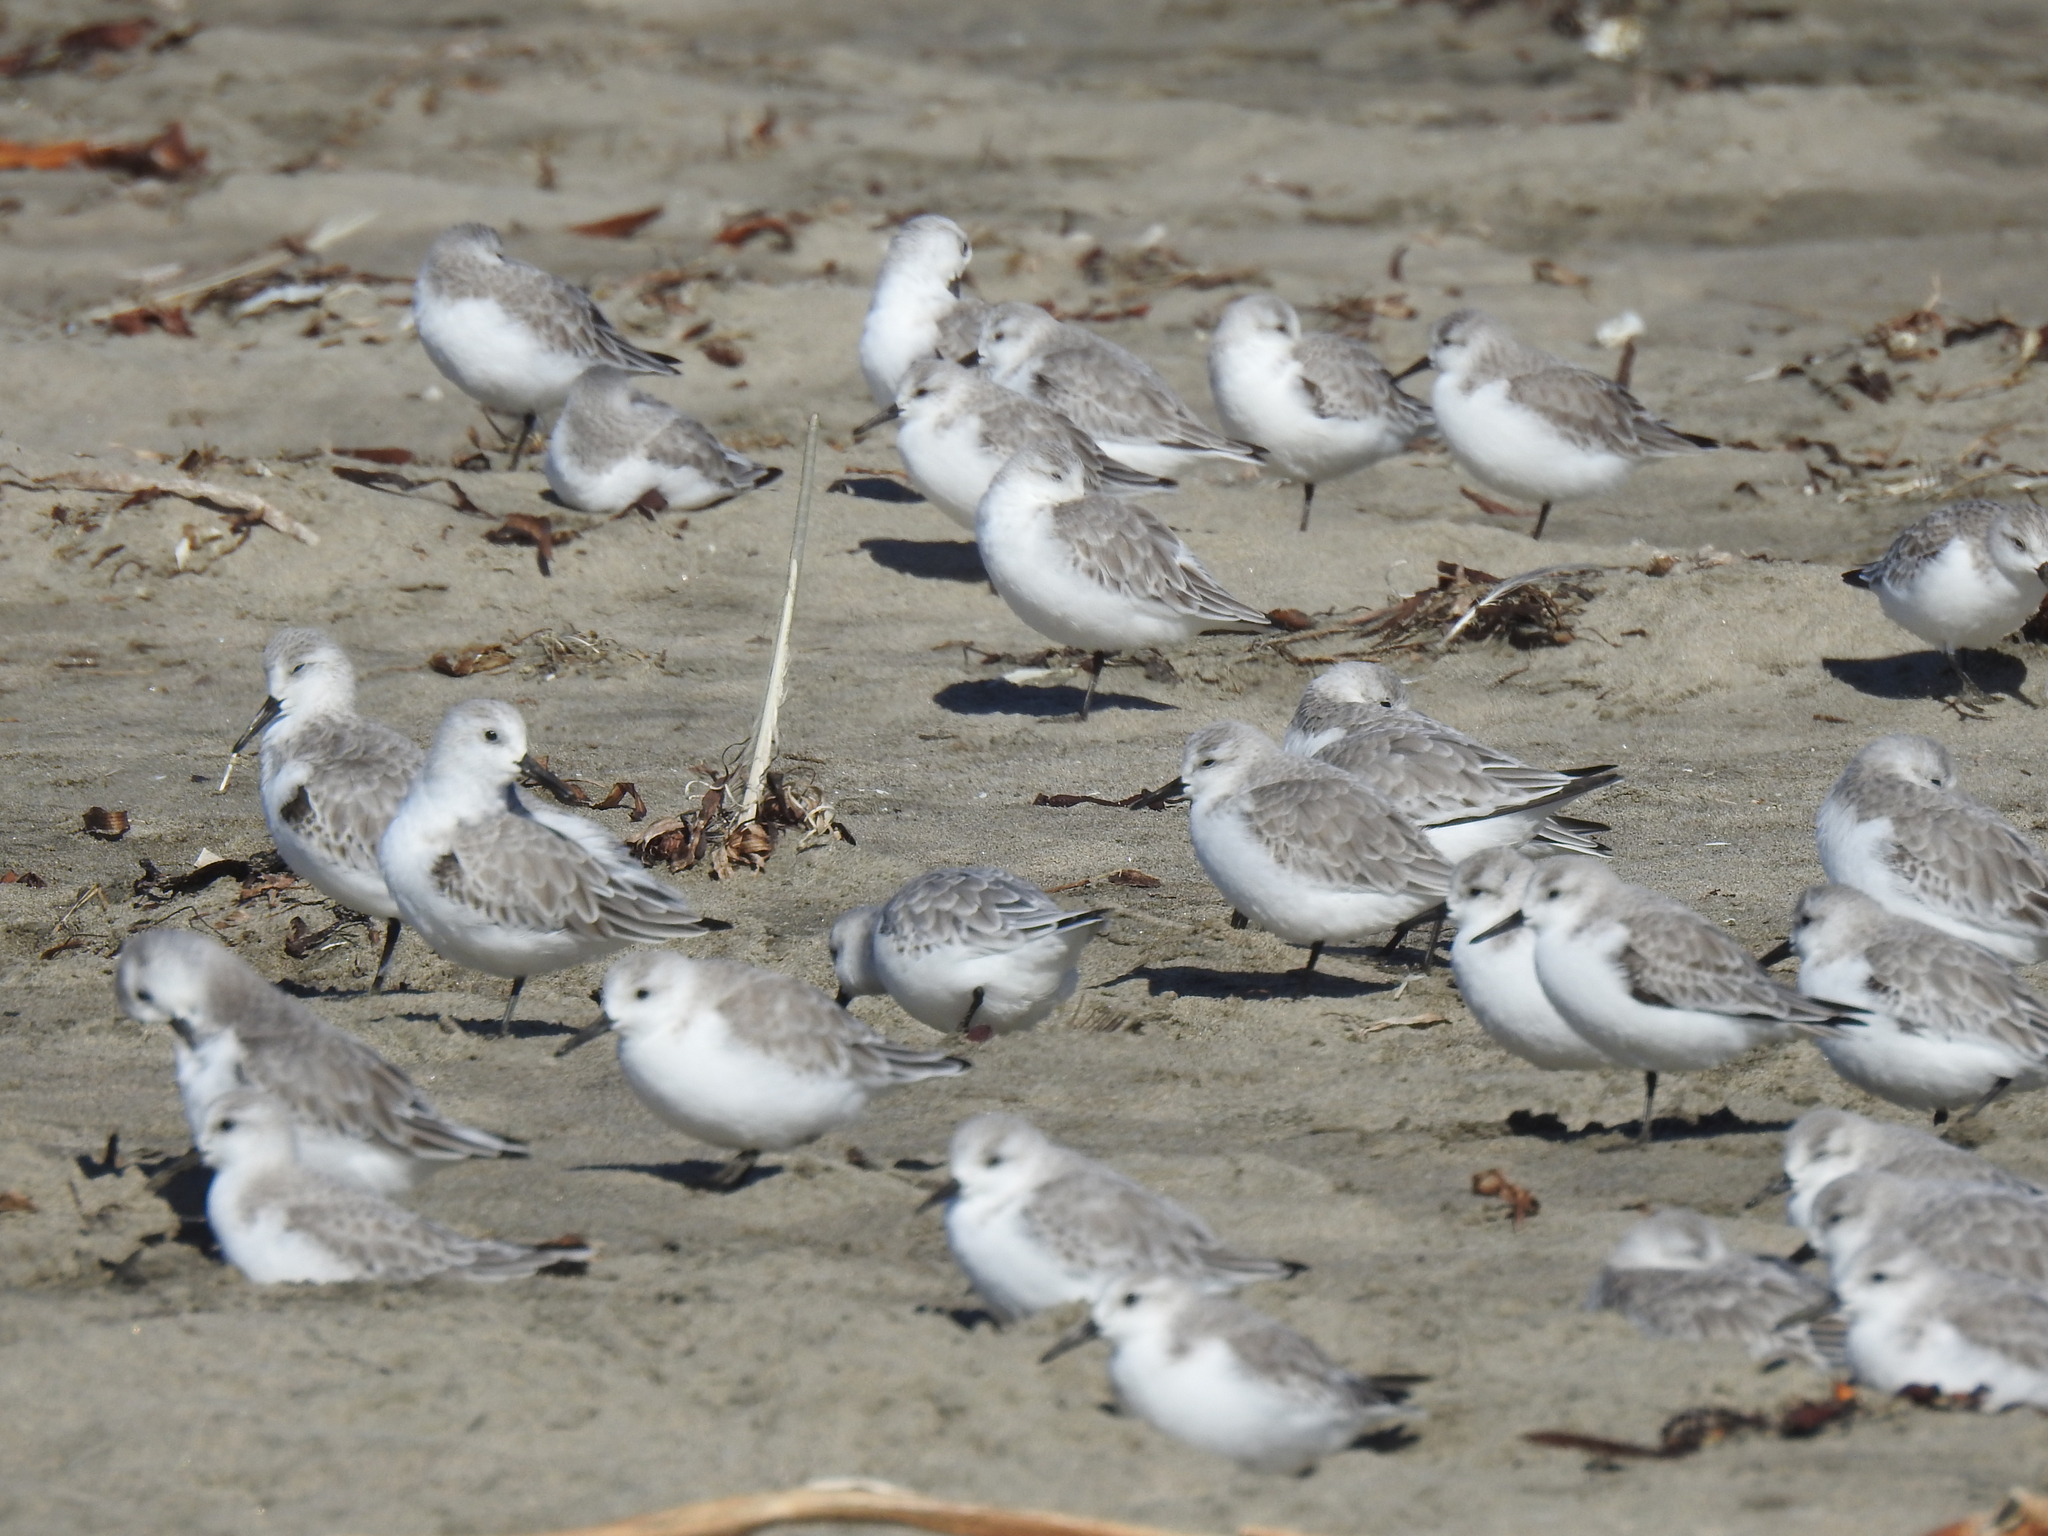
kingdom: Animalia
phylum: Chordata
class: Aves
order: Charadriiformes
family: Scolopacidae
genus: Calidris
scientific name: Calidris alba
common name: Sanderling
